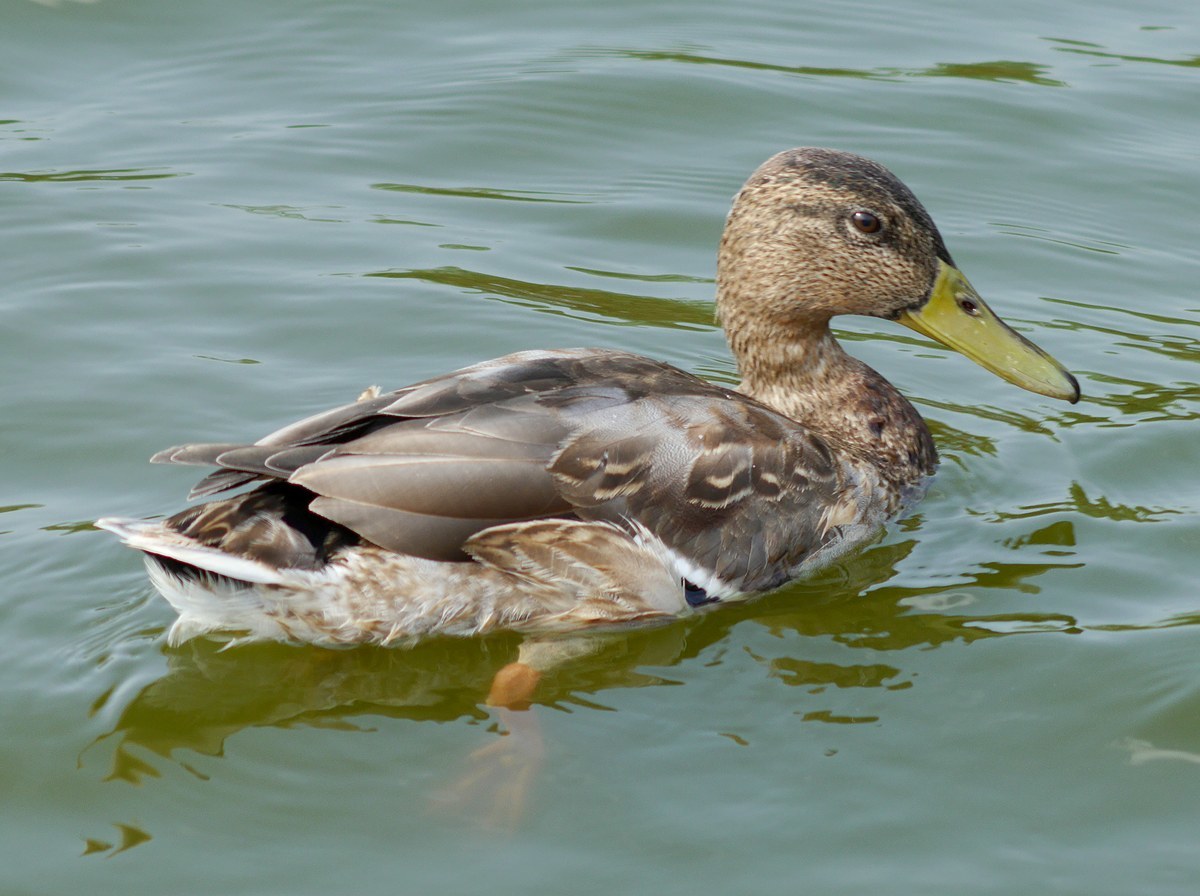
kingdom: Animalia
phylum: Chordata
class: Aves
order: Anseriformes
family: Anatidae
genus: Anas
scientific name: Anas platyrhynchos
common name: Mallard
